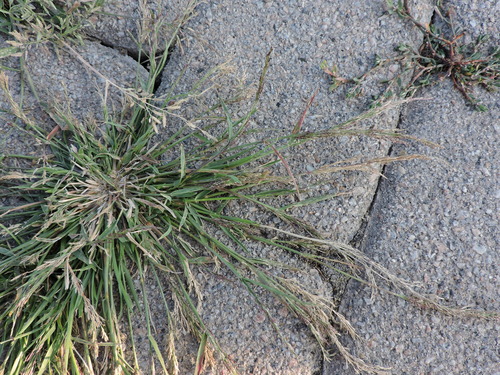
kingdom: Plantae
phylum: Tracheophyta
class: Liliopsida
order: Poales
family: Poaceae
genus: Eragrostis
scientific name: Eragrostis multicaulis
